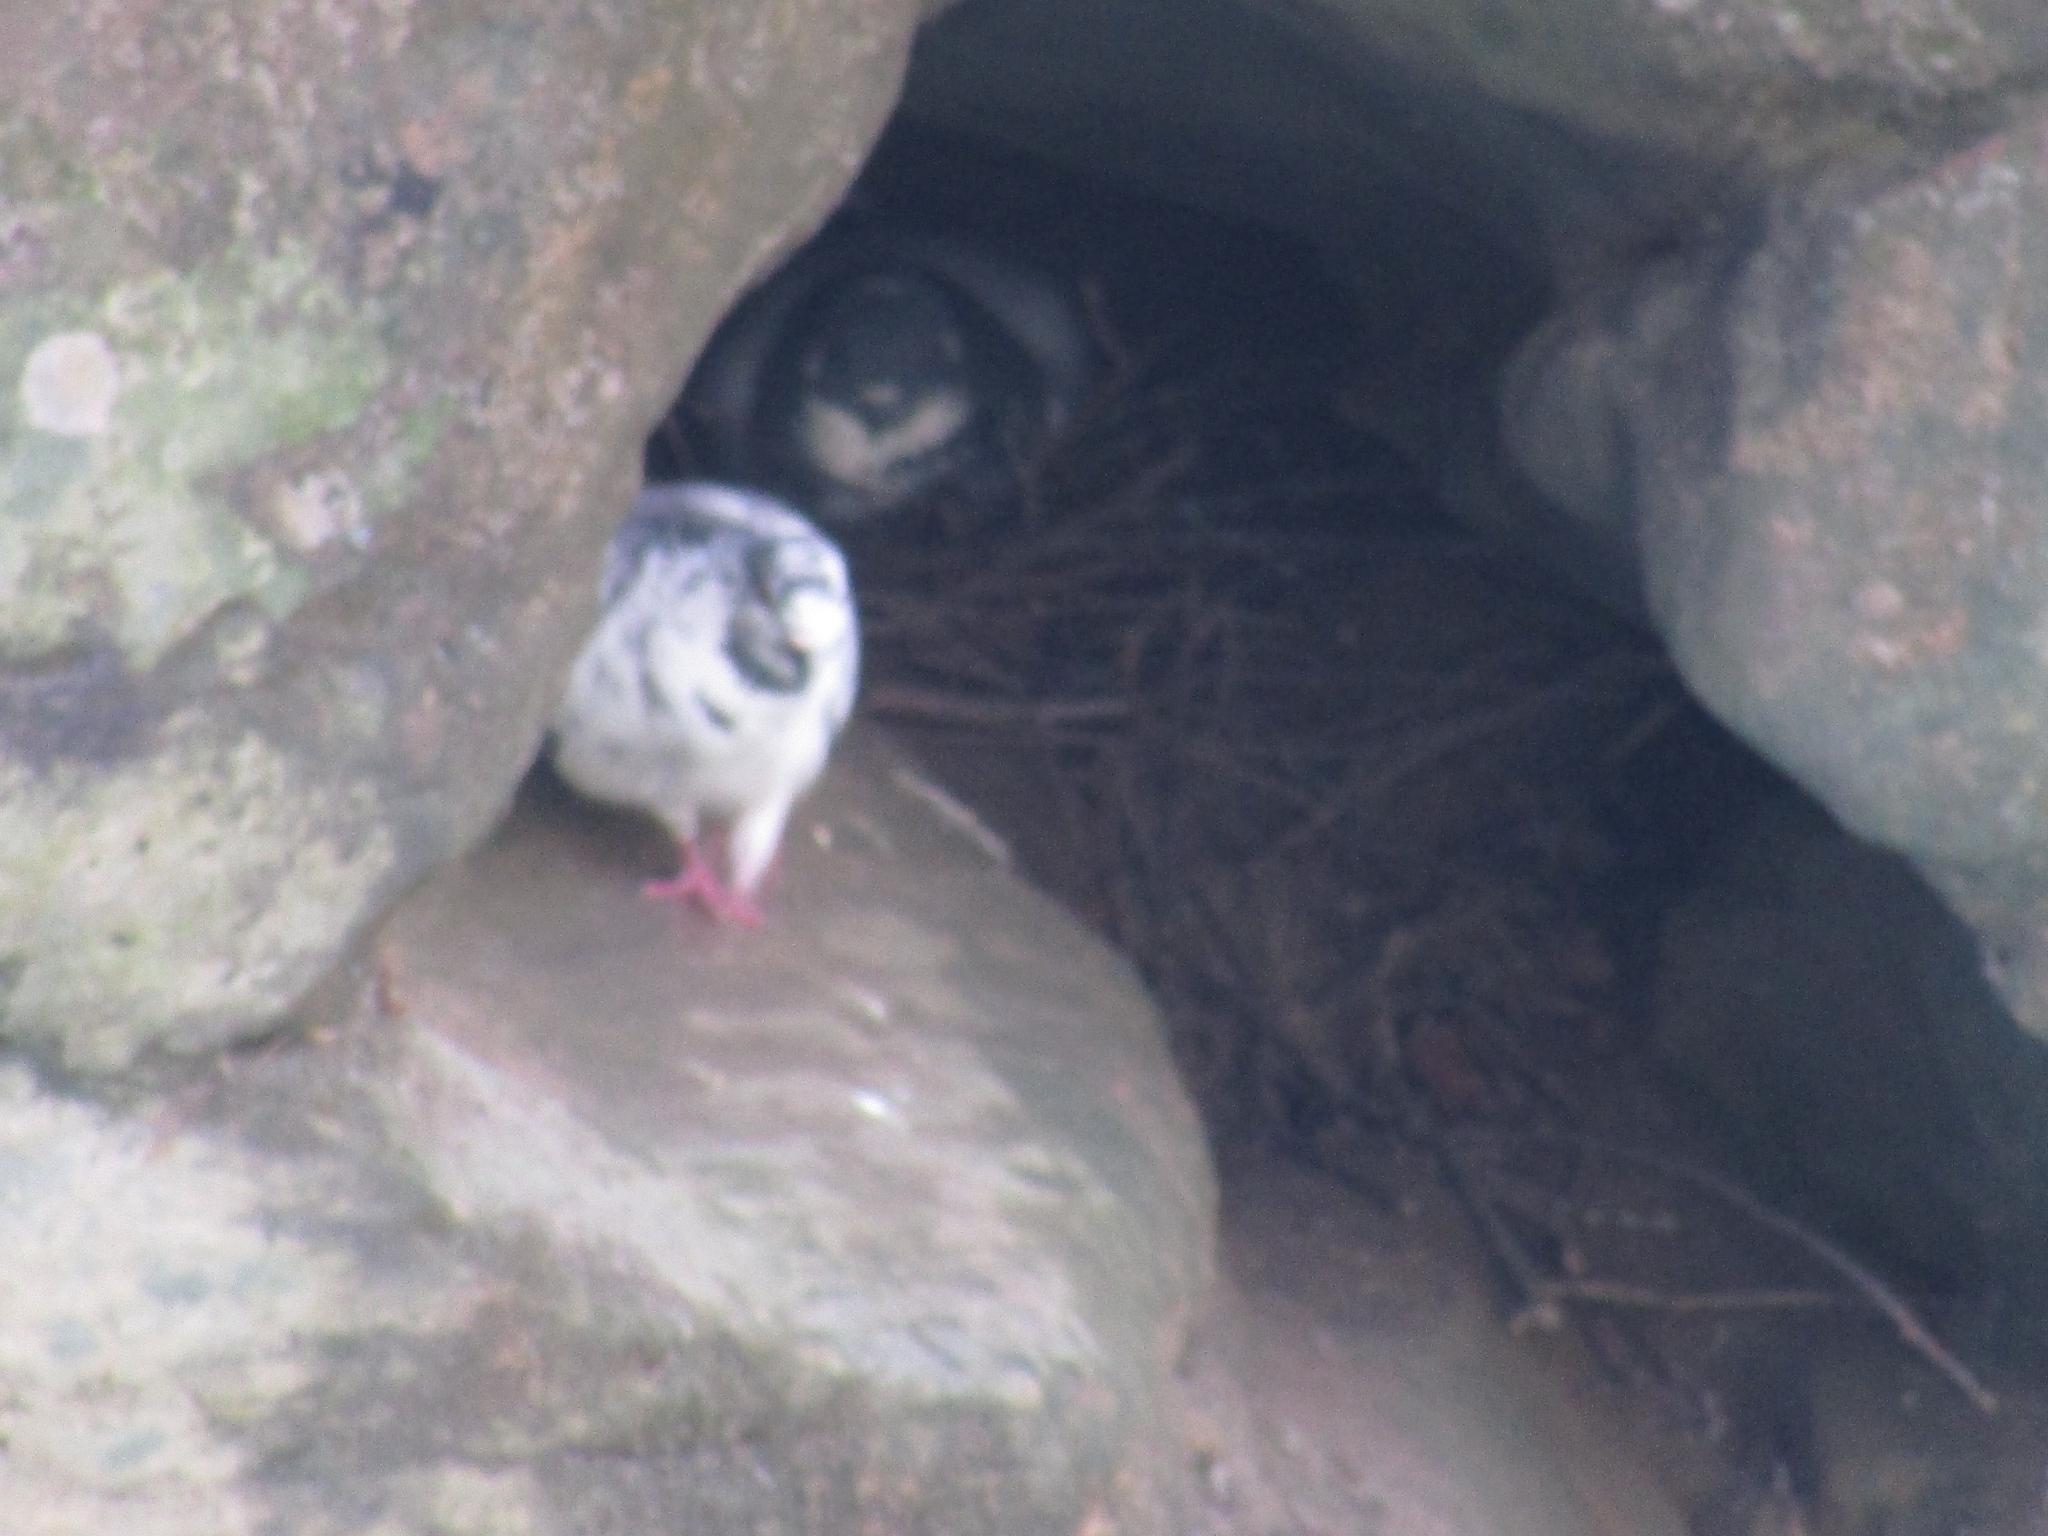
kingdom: Animalia
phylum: Chordata
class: Aves
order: Columbiformes
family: Columbidae
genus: Columba
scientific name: Columba livia
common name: Rock pigeon
